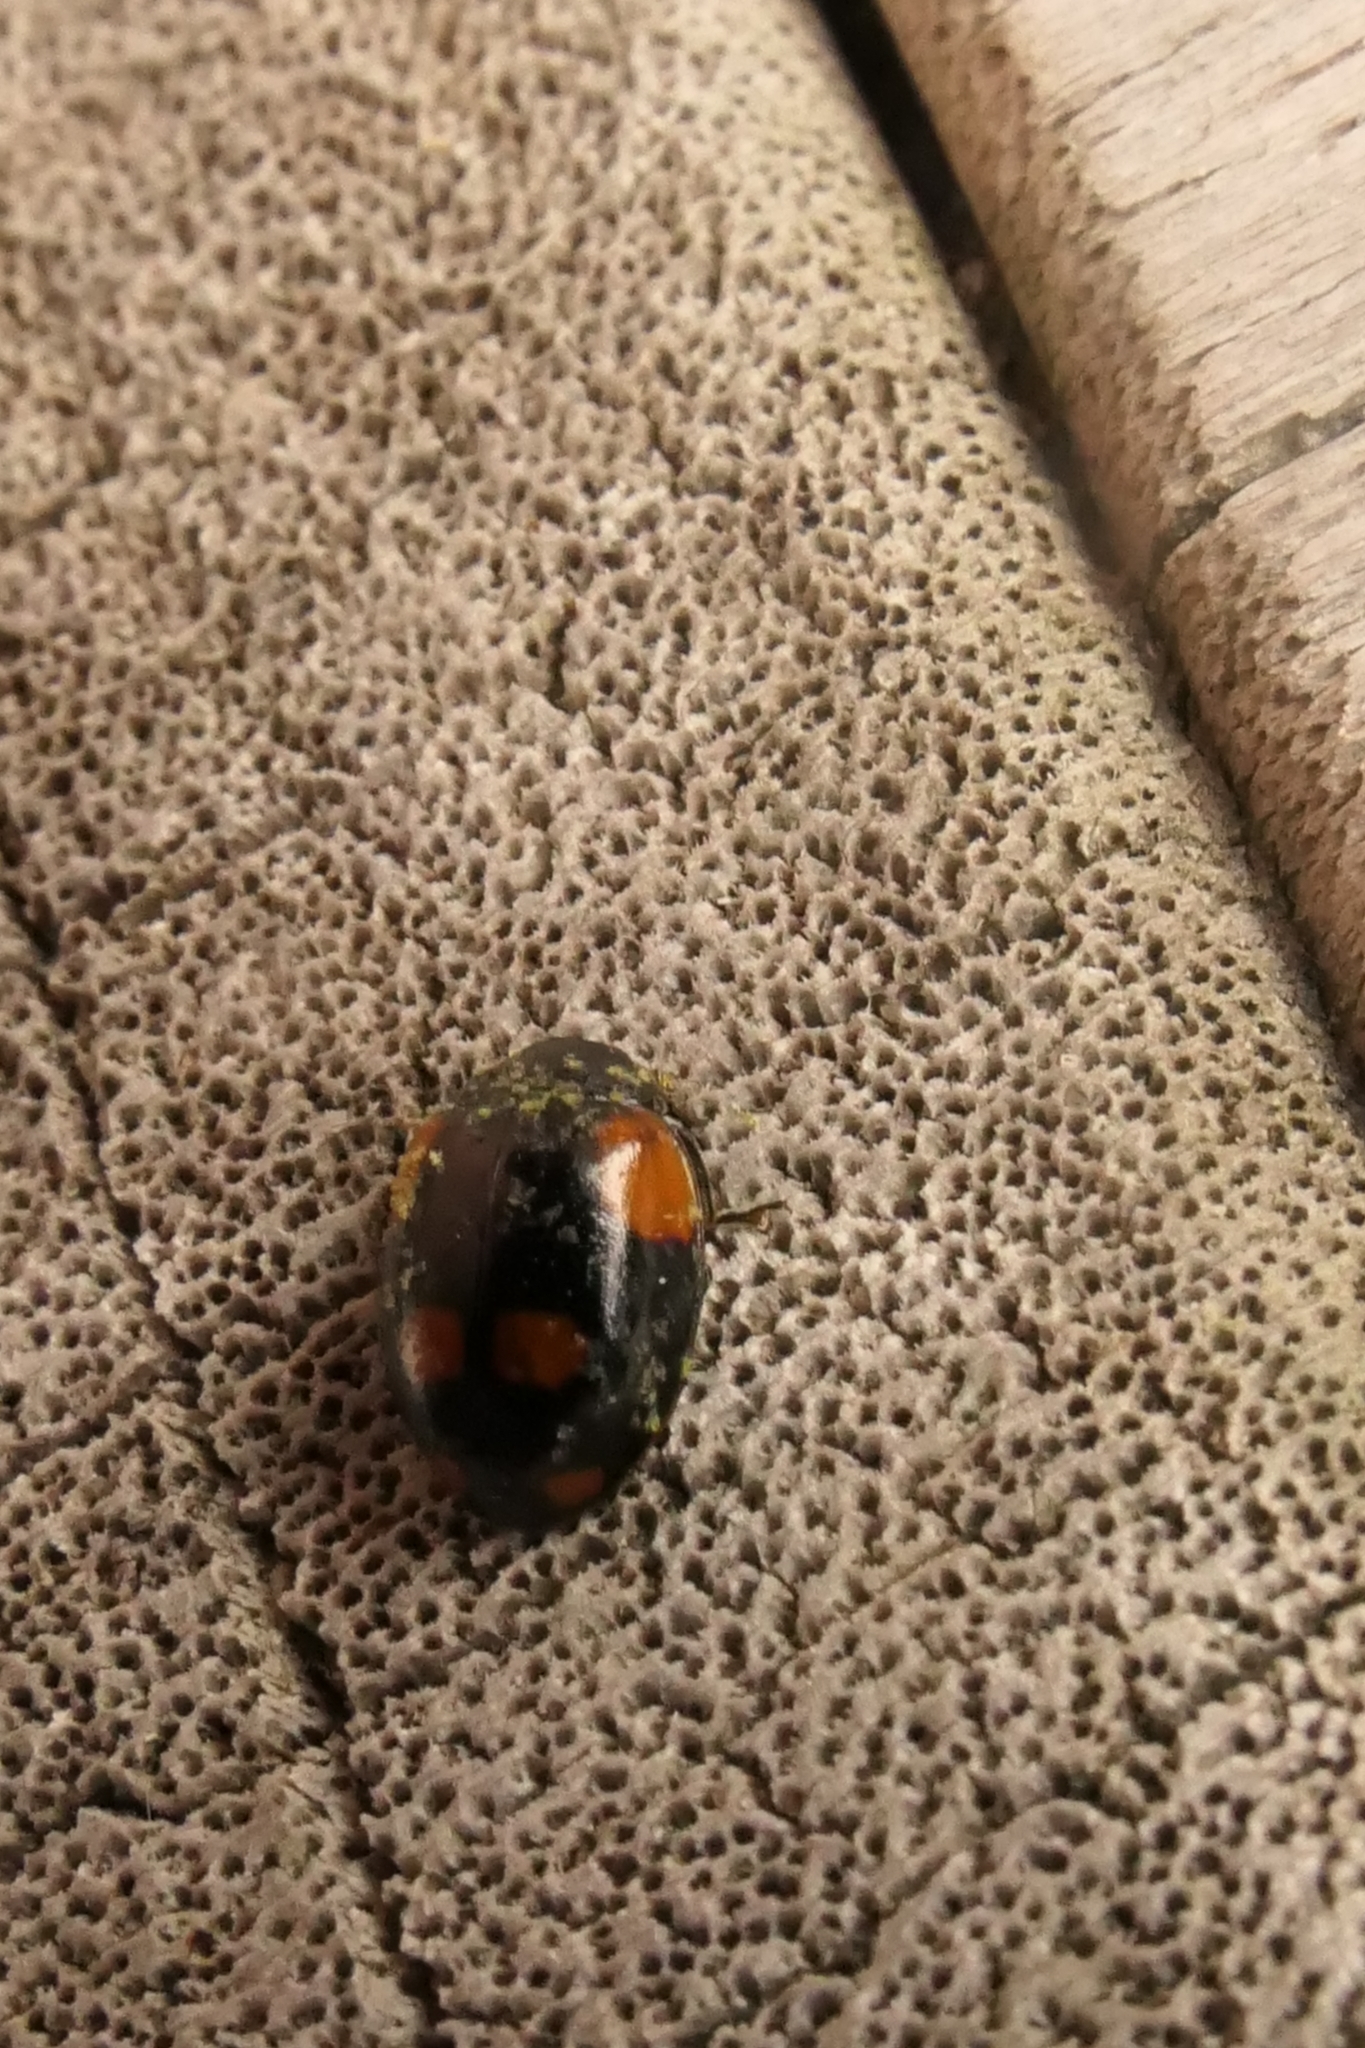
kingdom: Animalia
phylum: Arthropoda
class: Insecta
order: Coleoptera
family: Coccinellidae
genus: Adalia
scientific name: Adalia bipunctata
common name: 2-spot ladybird
